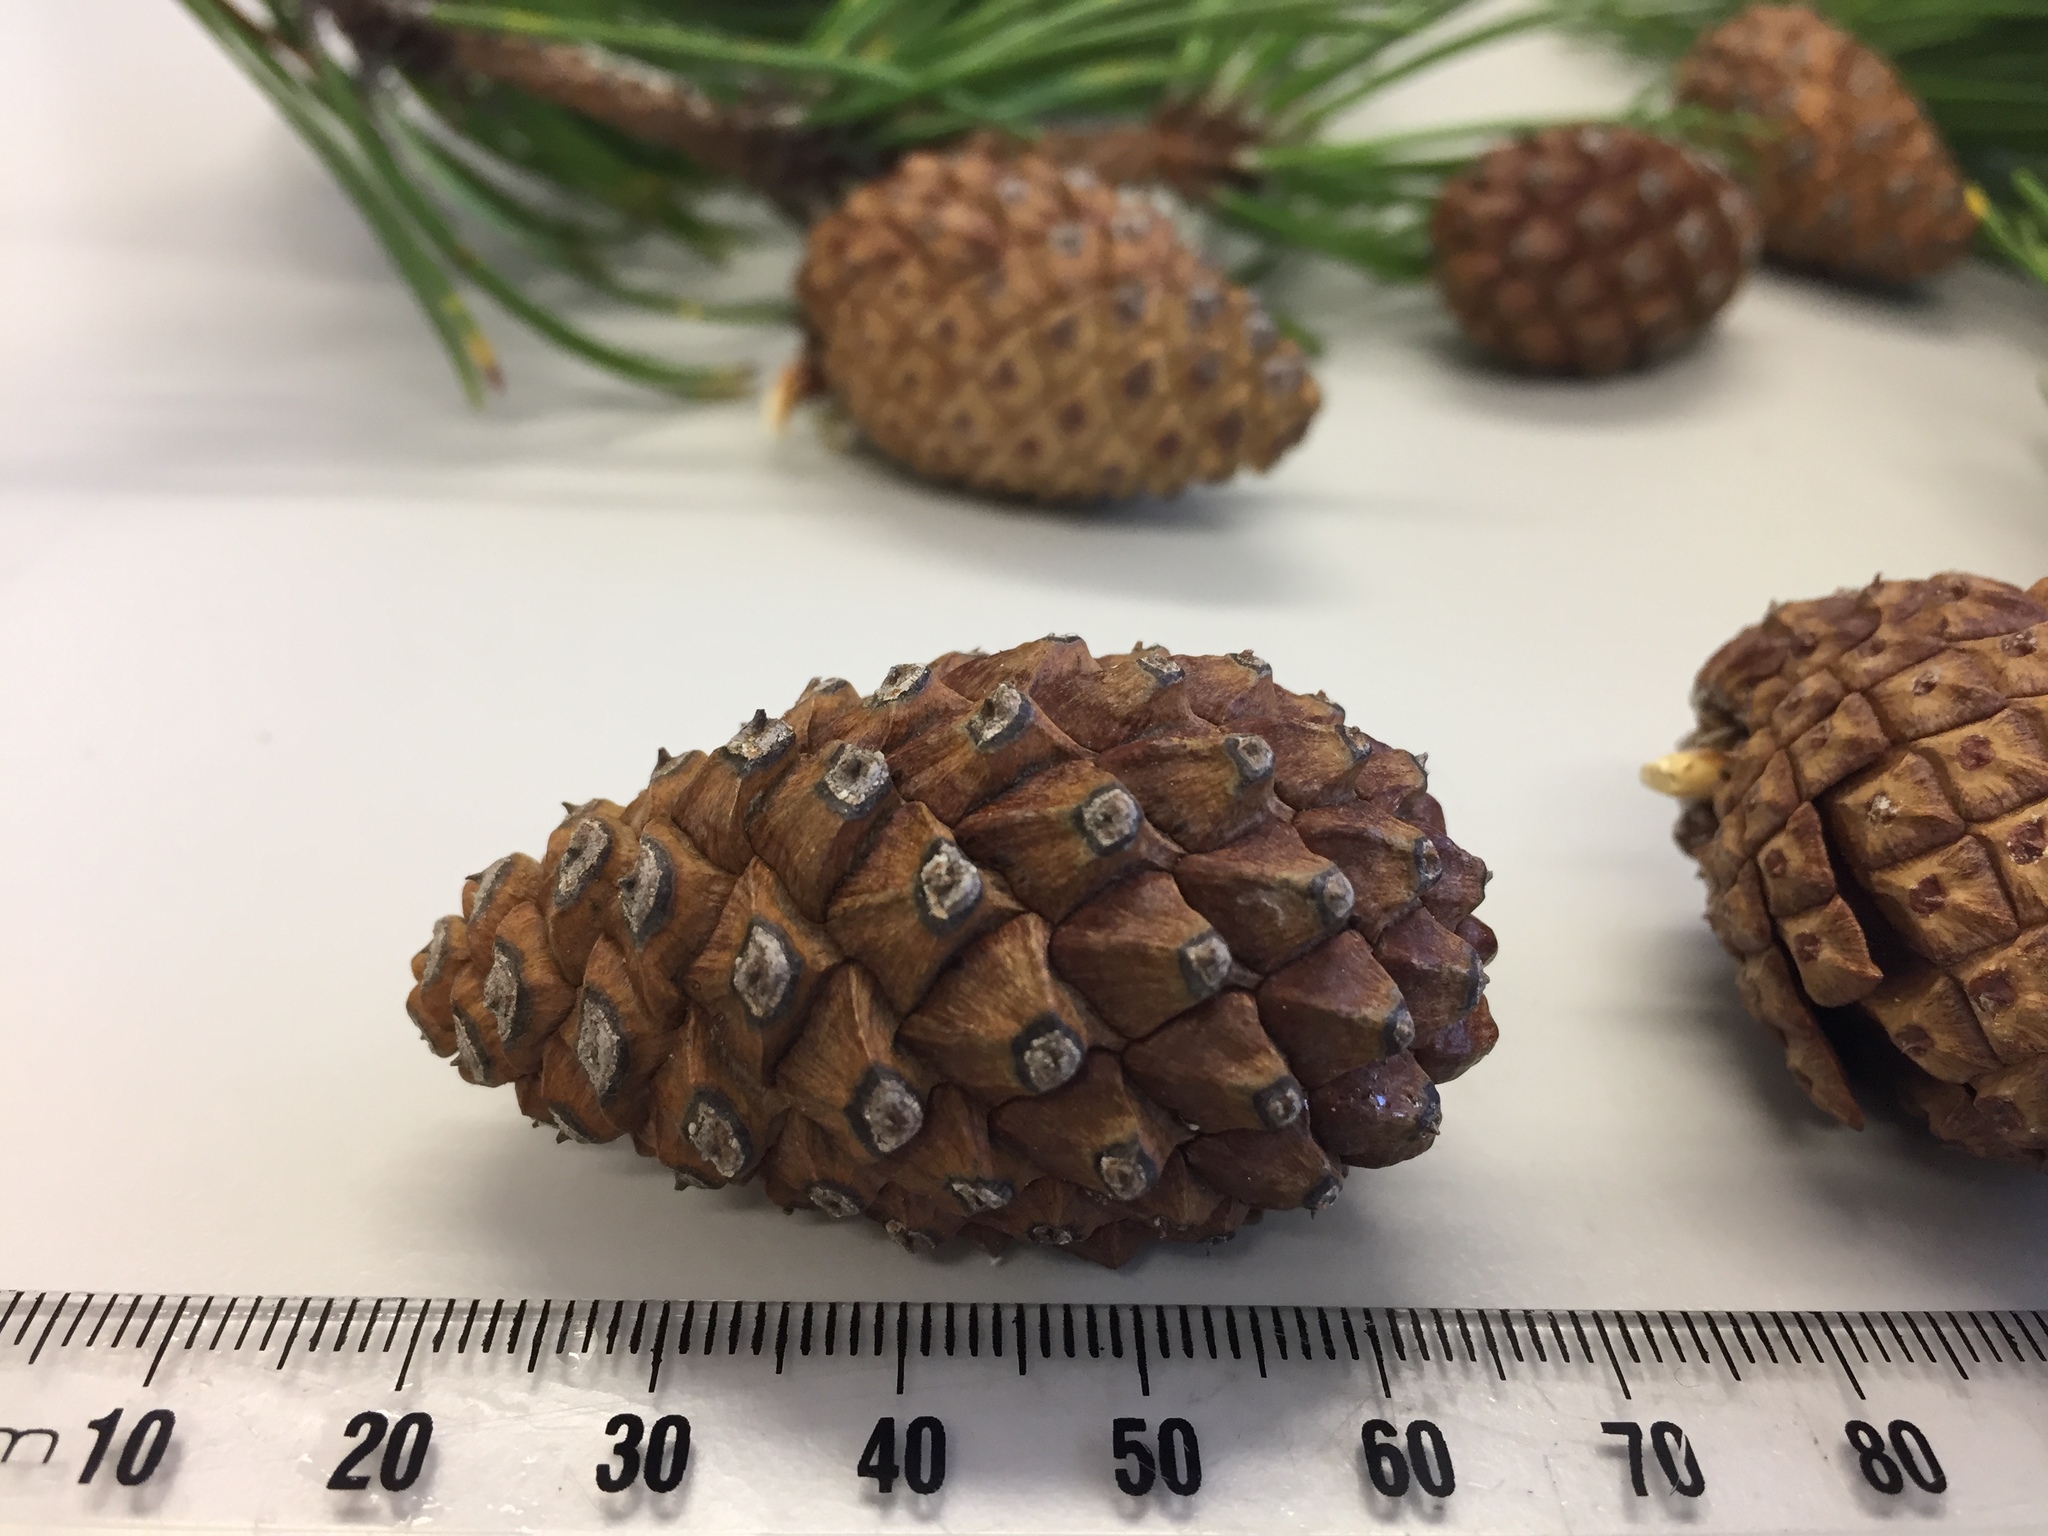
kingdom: Plantae
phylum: Tracheophyta
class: Pinopsida
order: Pinales
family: Pinaceae
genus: Pinus
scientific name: Pinus sylvestris
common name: Scots pine
